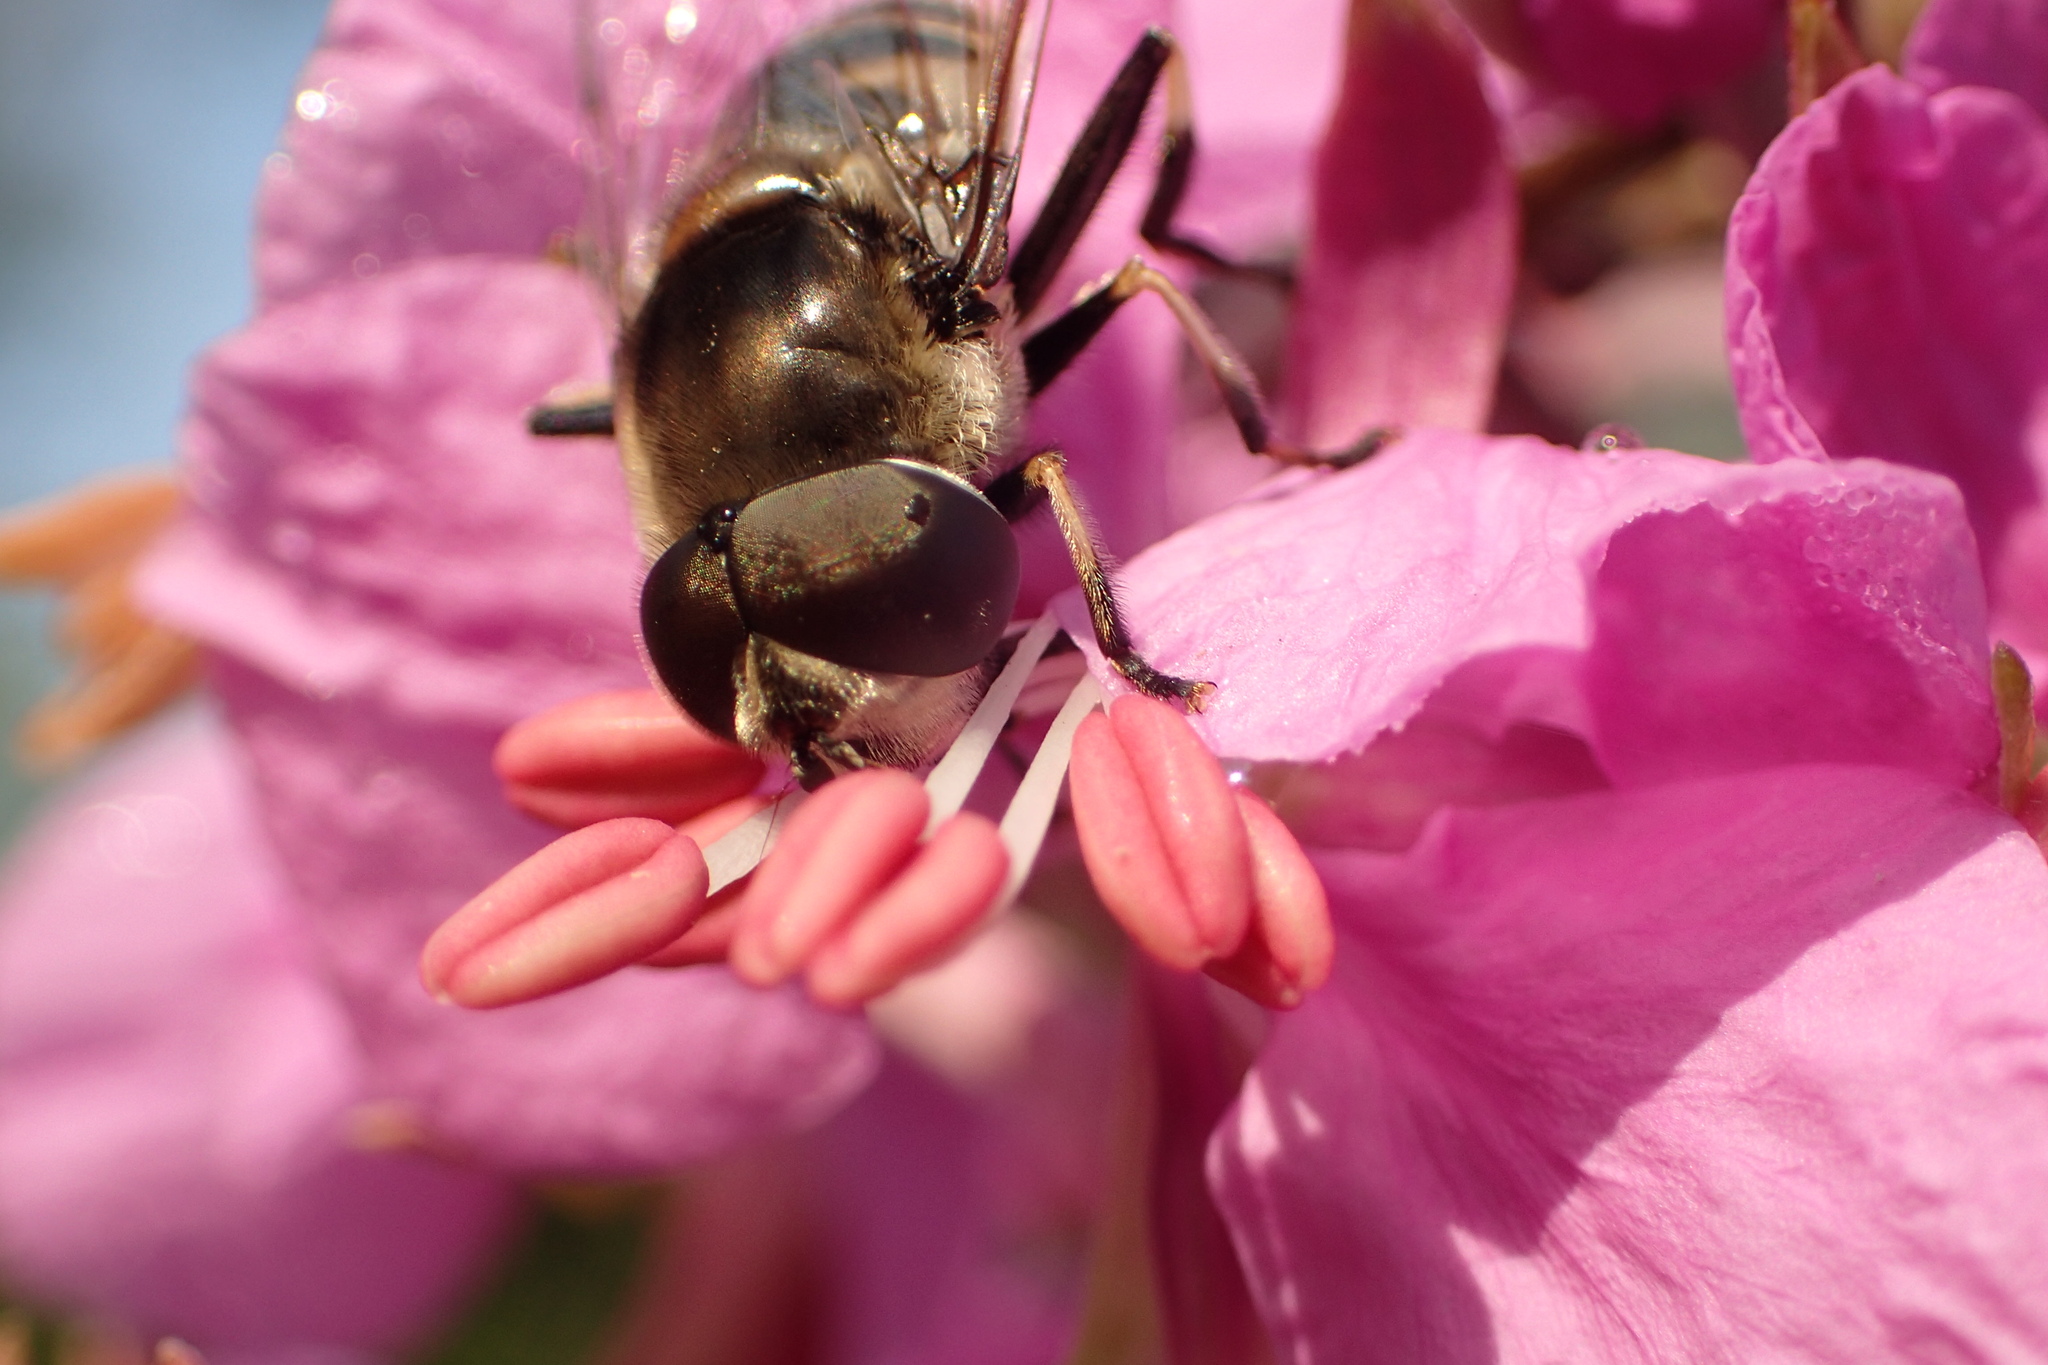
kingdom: Animalia
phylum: Arthropoda
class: Insecta
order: Diptera
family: Syrphidae
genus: Eristalis
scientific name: Eristalis dimidiata
